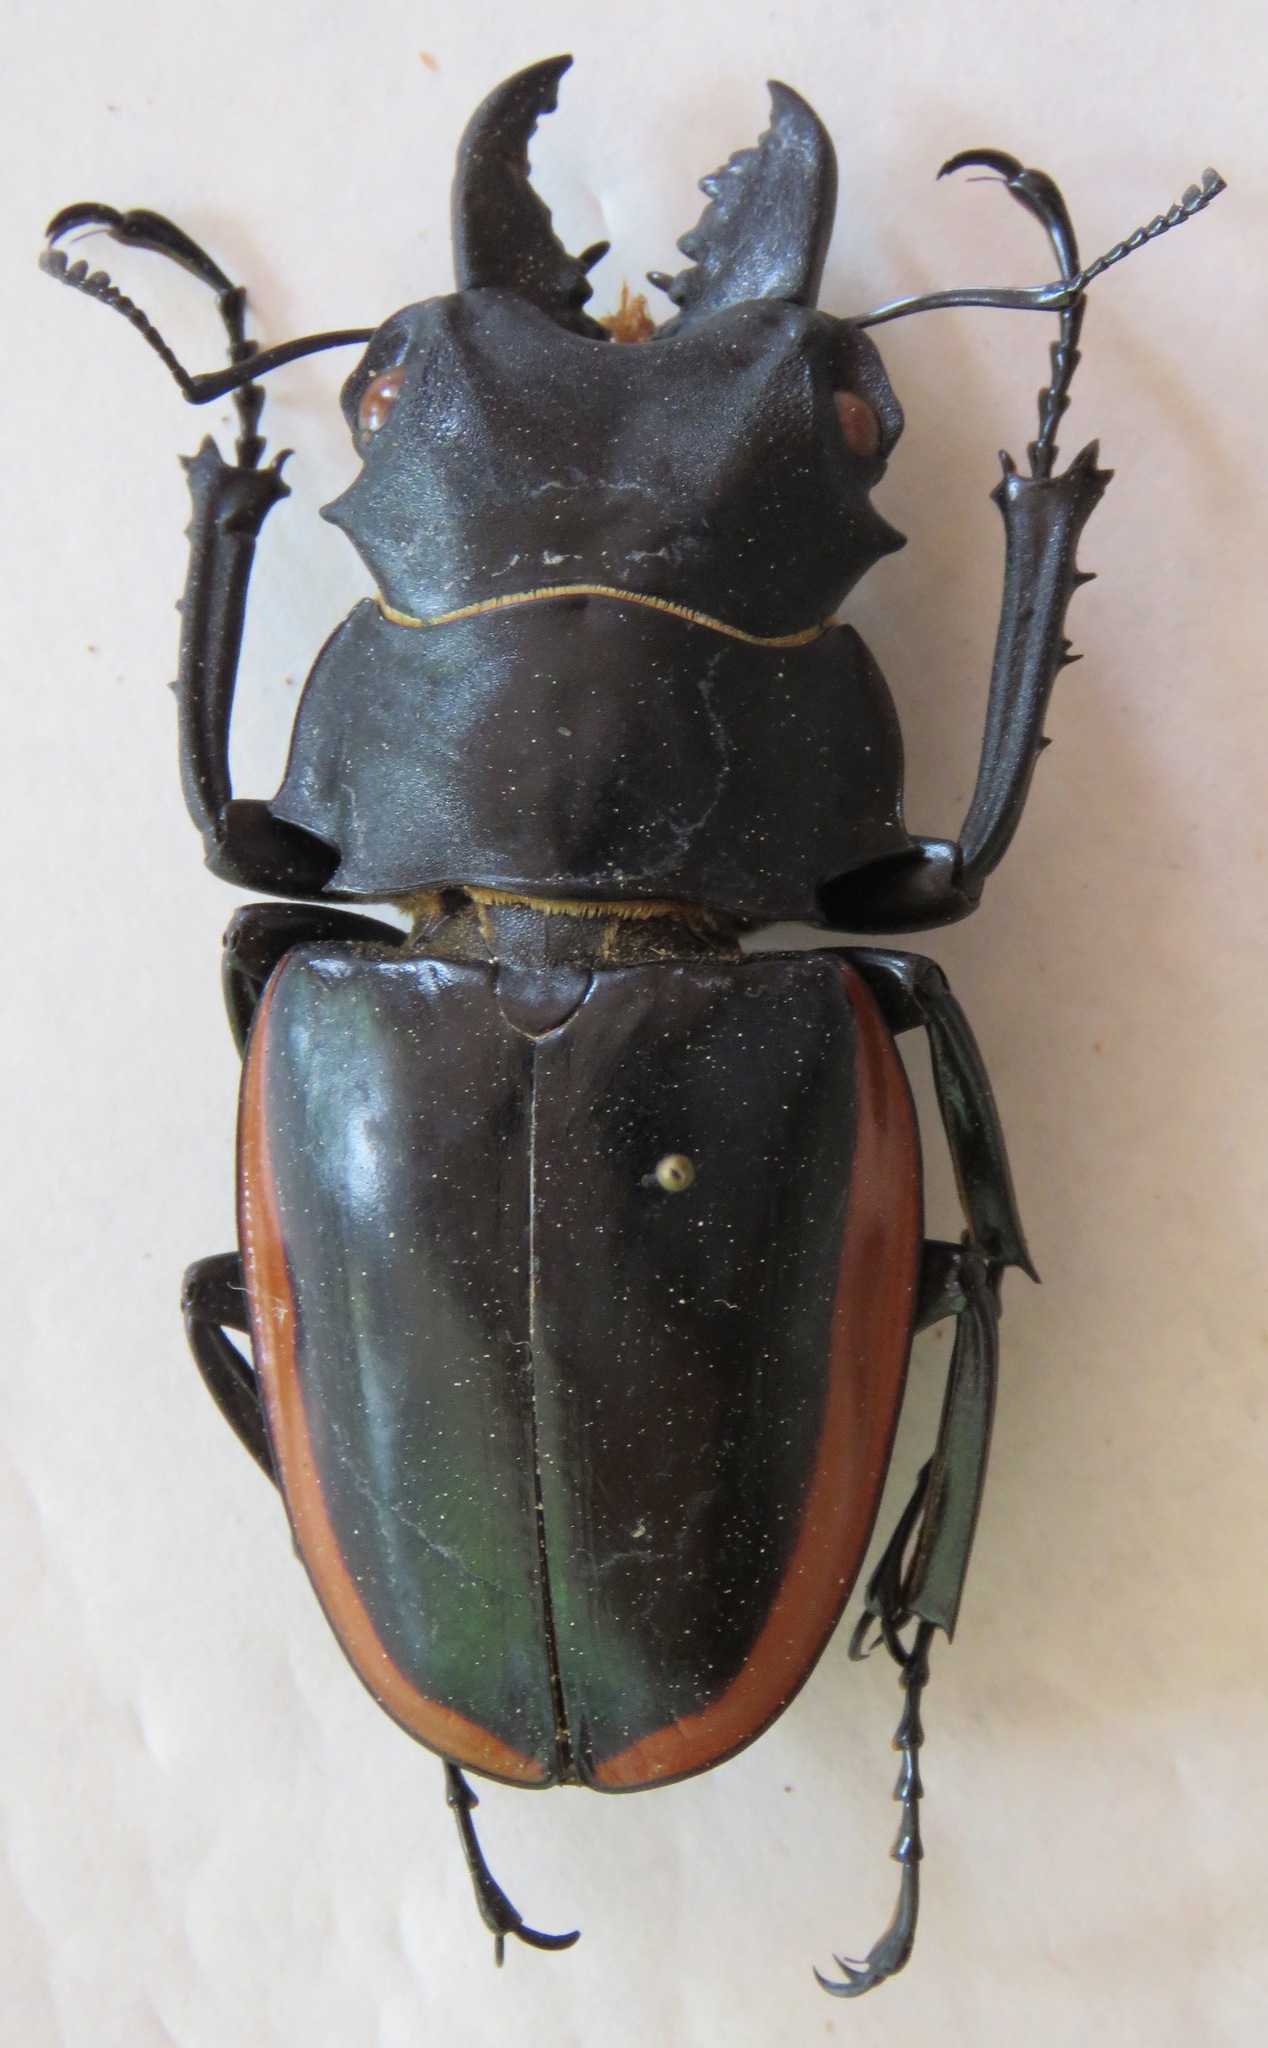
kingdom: Animalia
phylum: Arthropoda
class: Insecta
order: Coleoptera
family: Lucanidae
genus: Odontolabis
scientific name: Odontolabis cuvera
